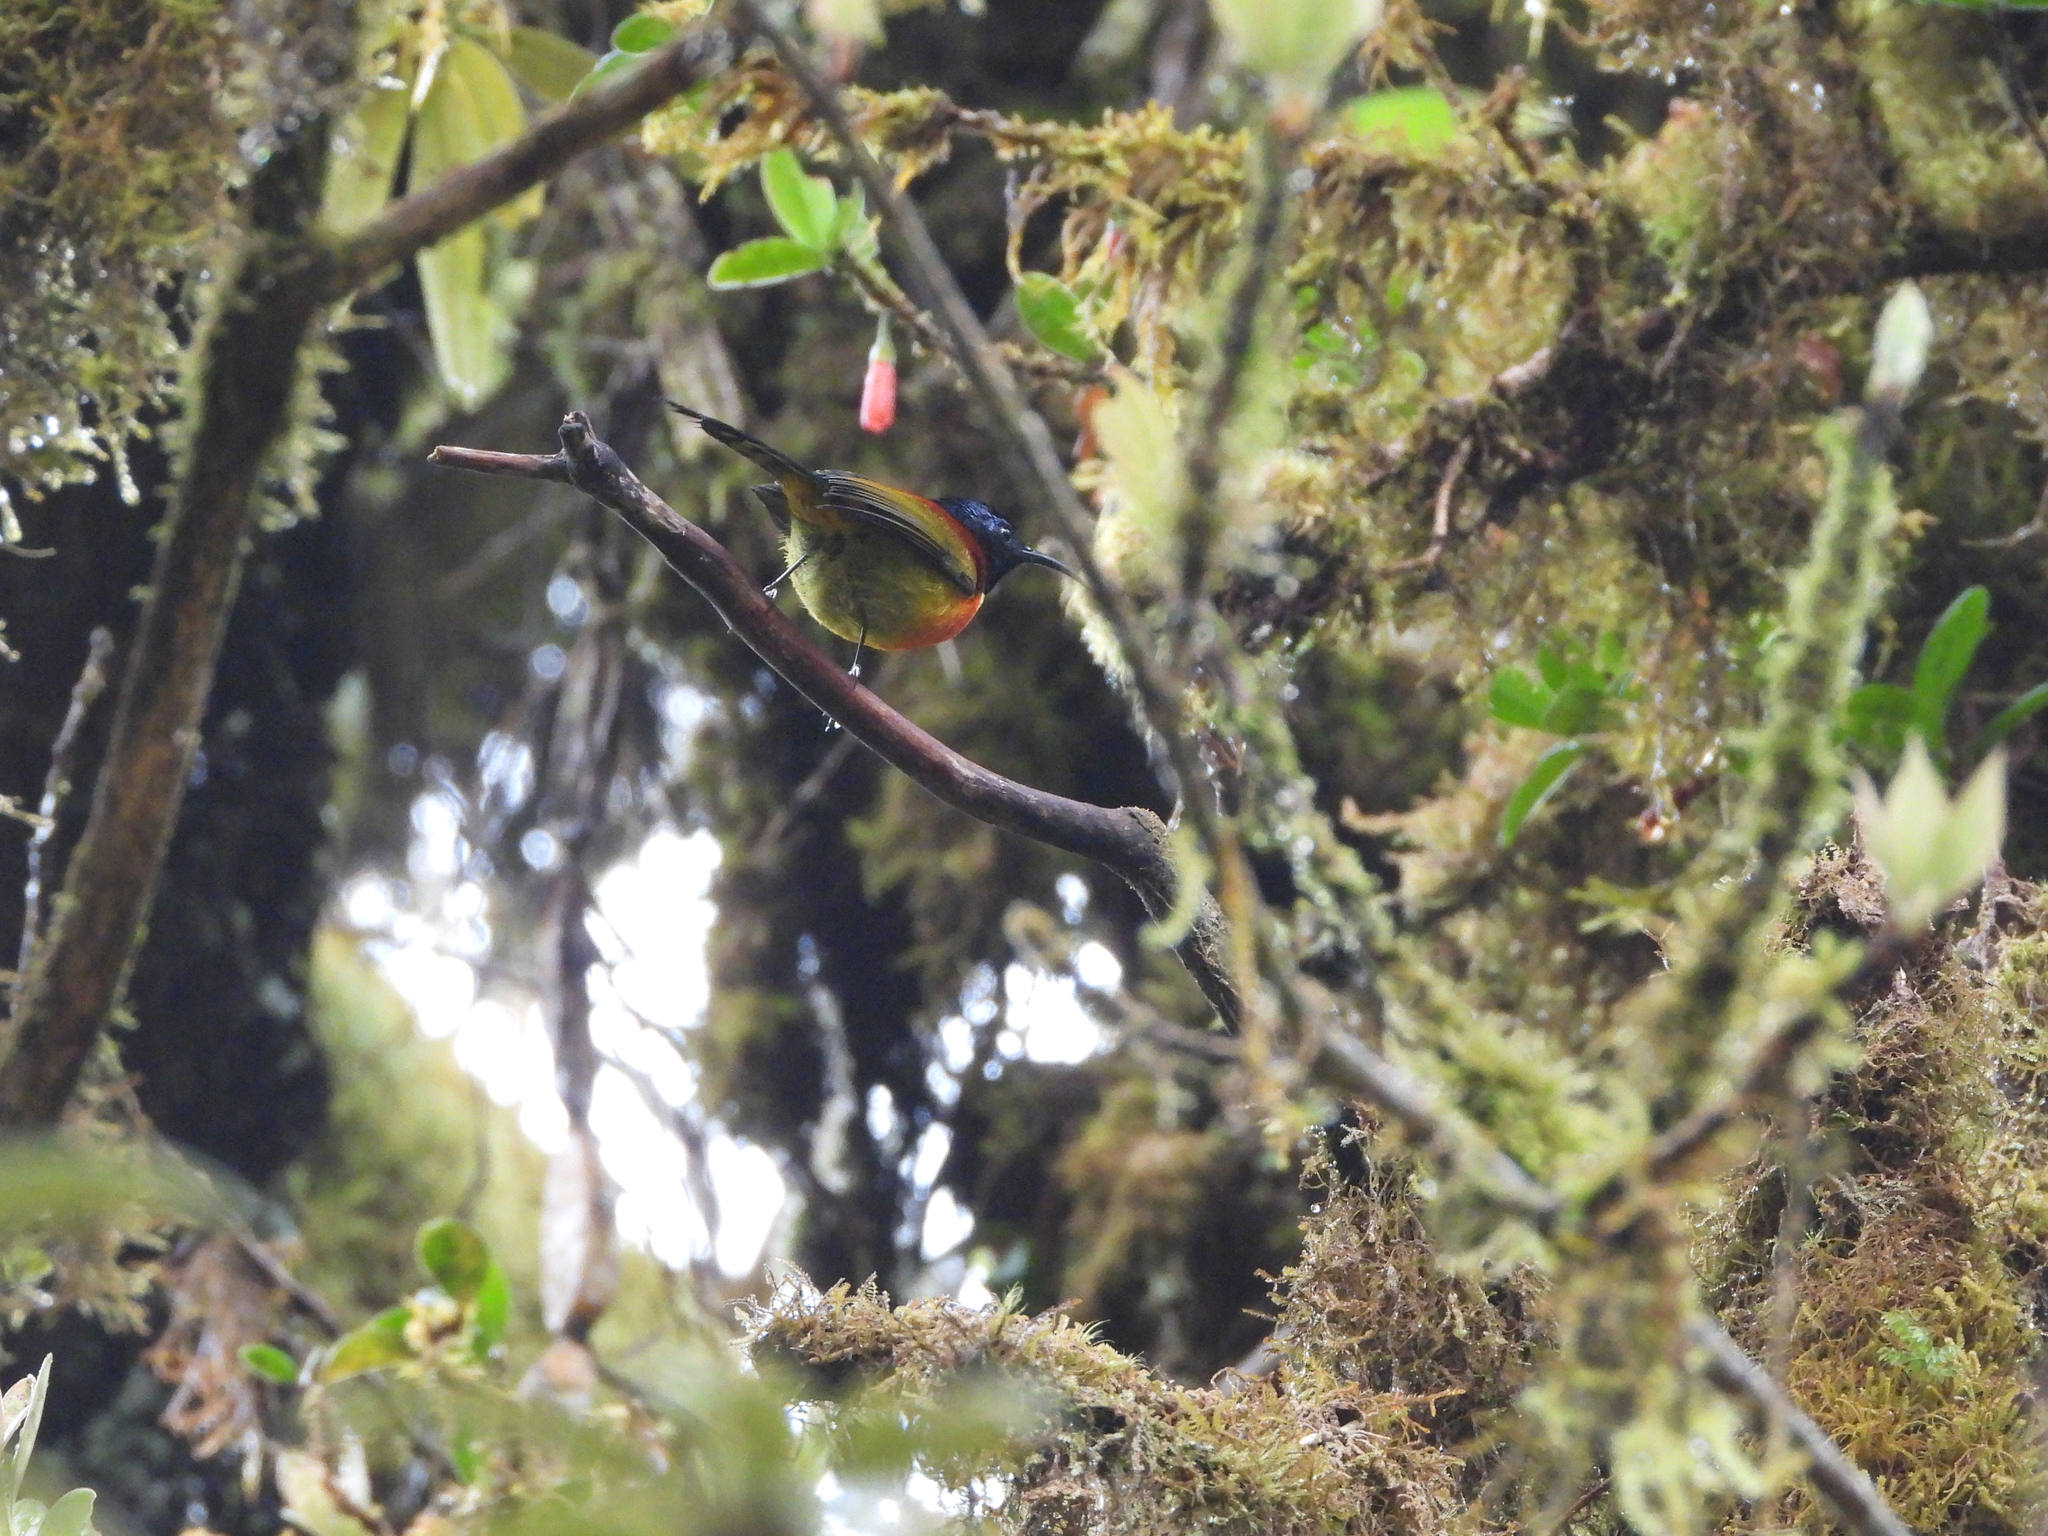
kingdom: Animalia
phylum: Chordata
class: Aves
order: Passeriformes
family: Nectariniidae
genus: Aethopyga
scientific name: Aethopyga nipalensis
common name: Green-tailed sunbird
